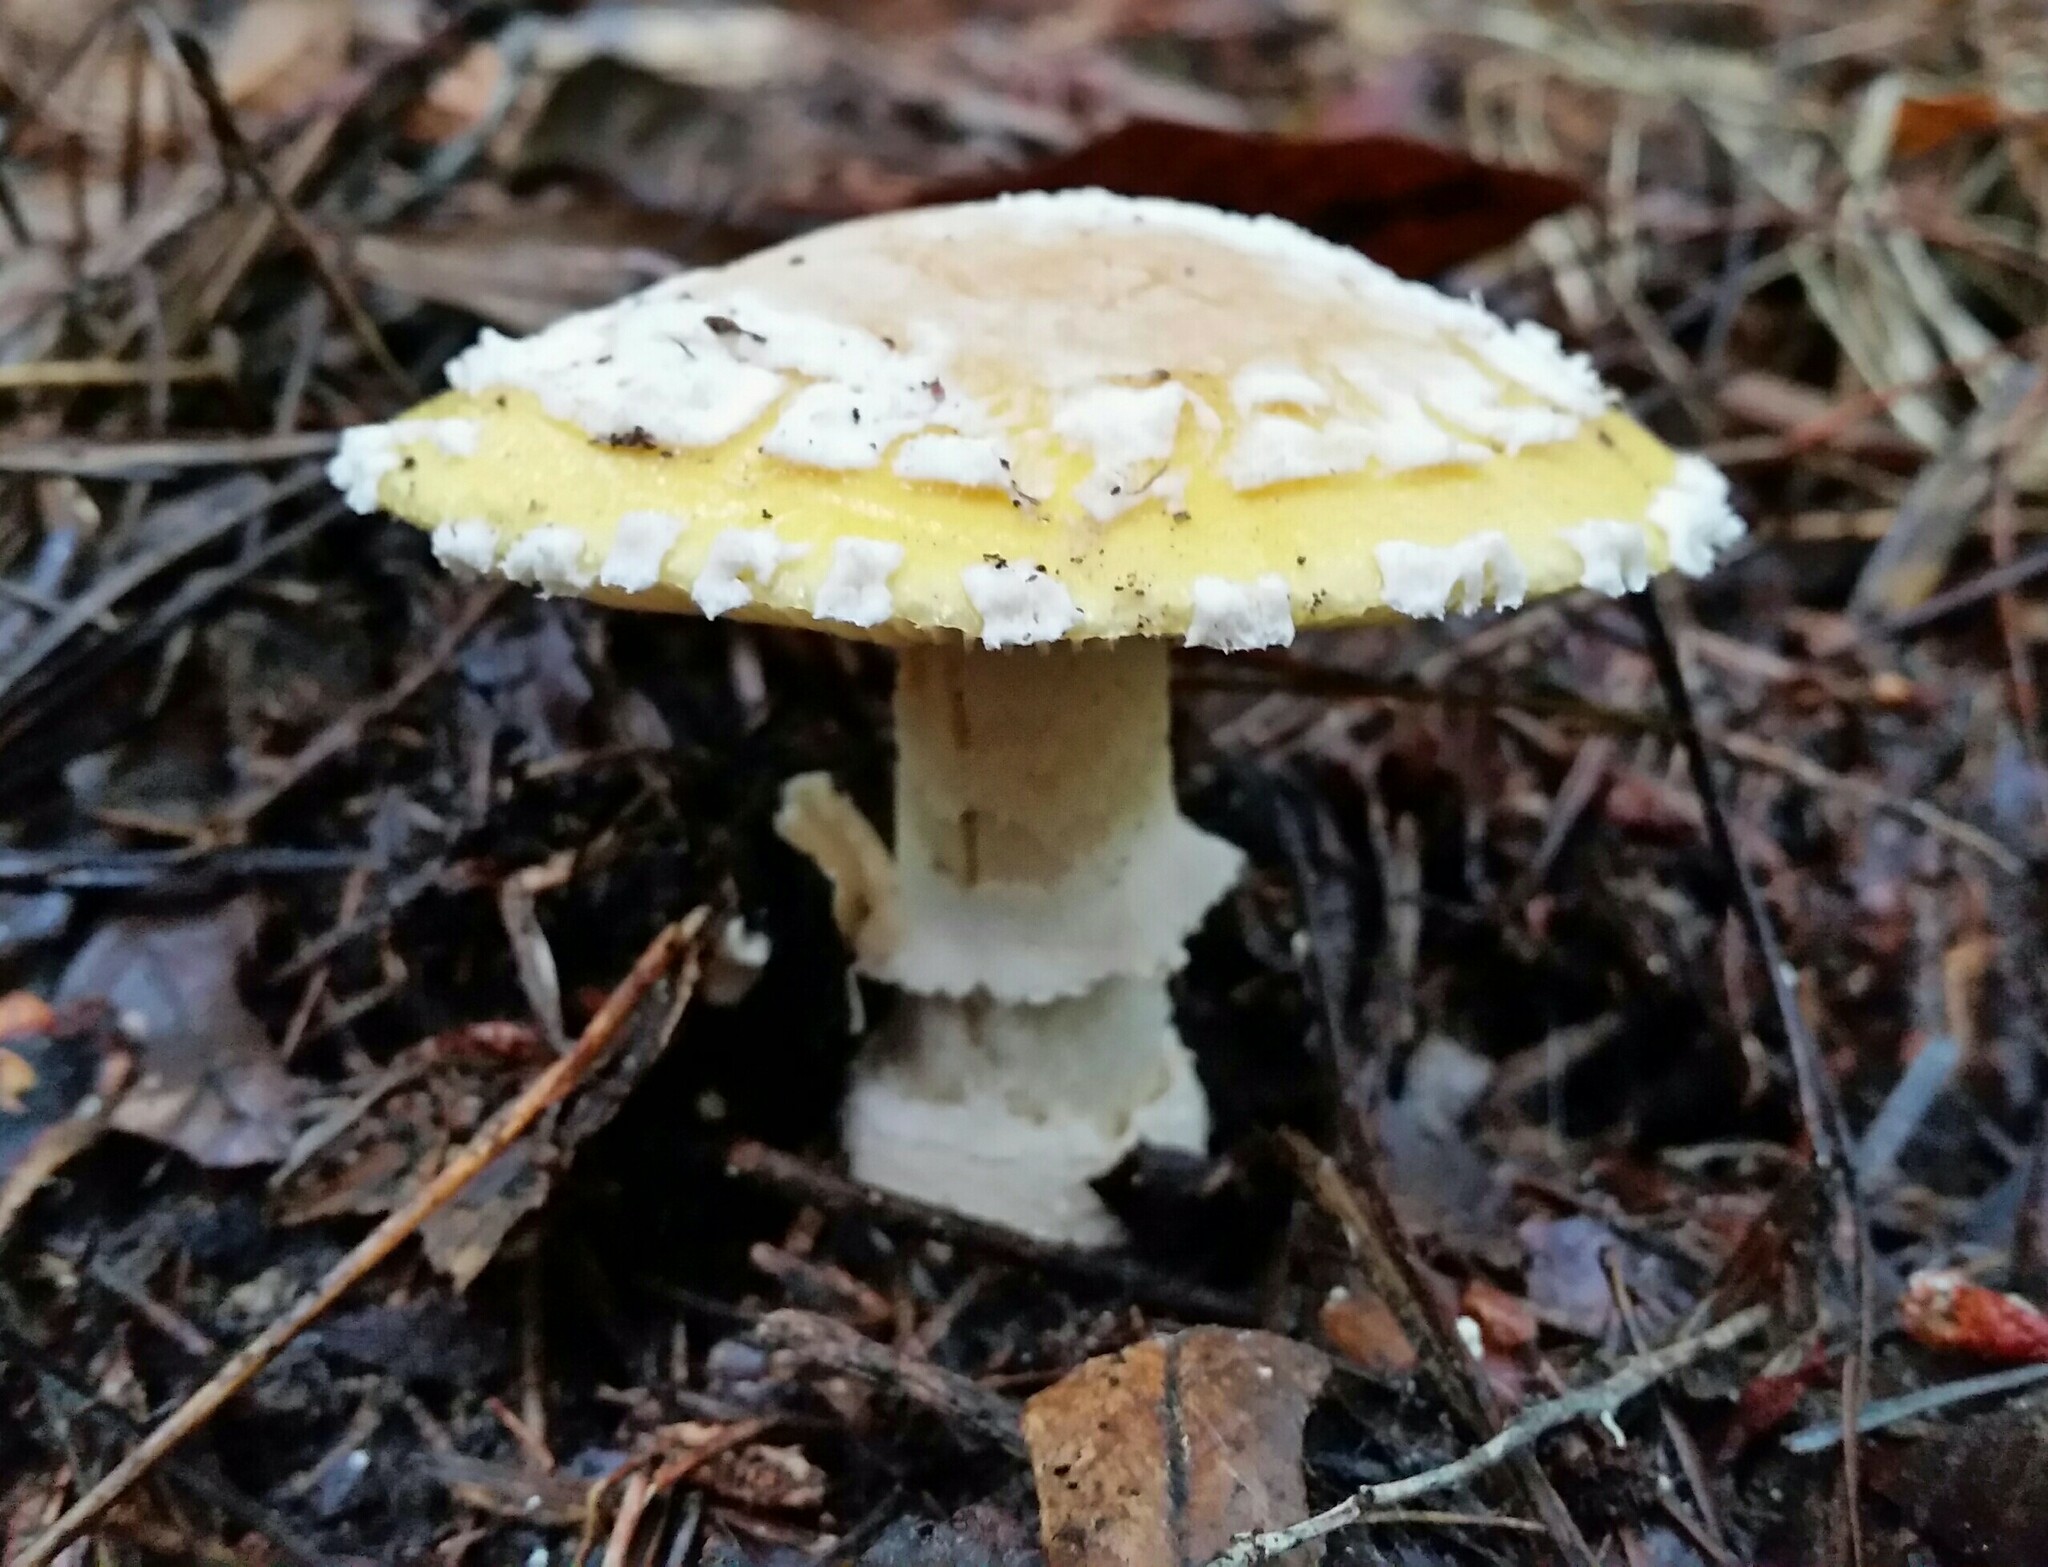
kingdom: Fungi
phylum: Basidiomycota
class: Agaricomycetes
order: Agaricales
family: Amanitaceae
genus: Amanita
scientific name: Amanita augusta
